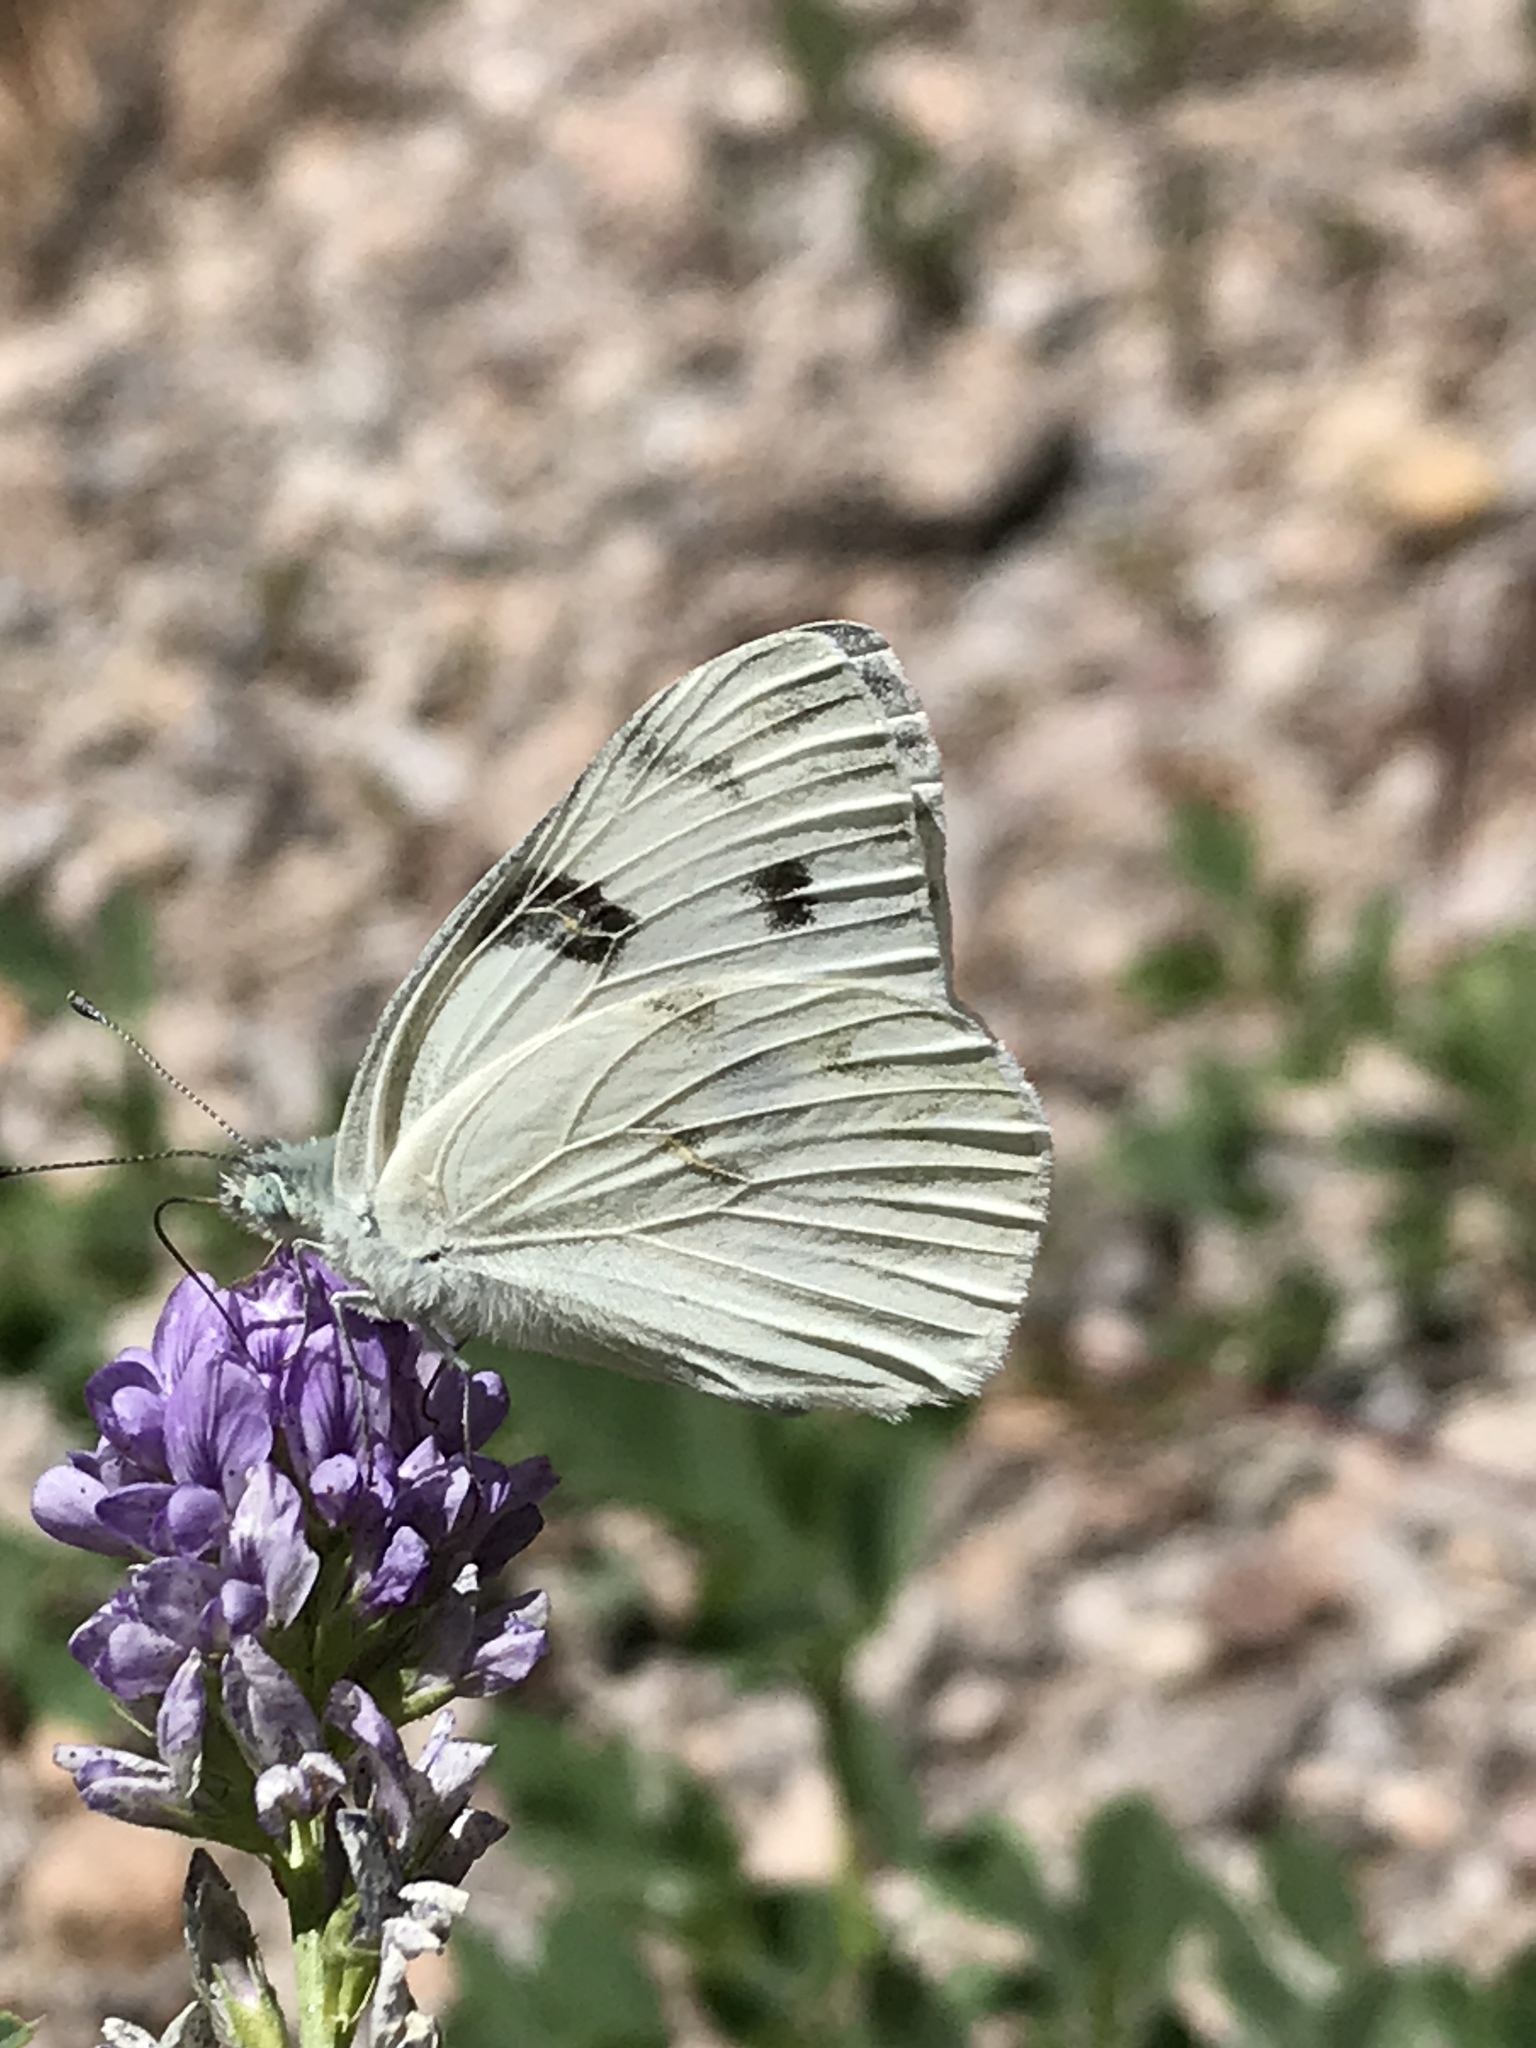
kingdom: Animalia
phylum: Arthropoda
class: Insecta
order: Lepidoptera
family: Pieridae
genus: Pontia
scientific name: Pontia protodice
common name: Checkered white
